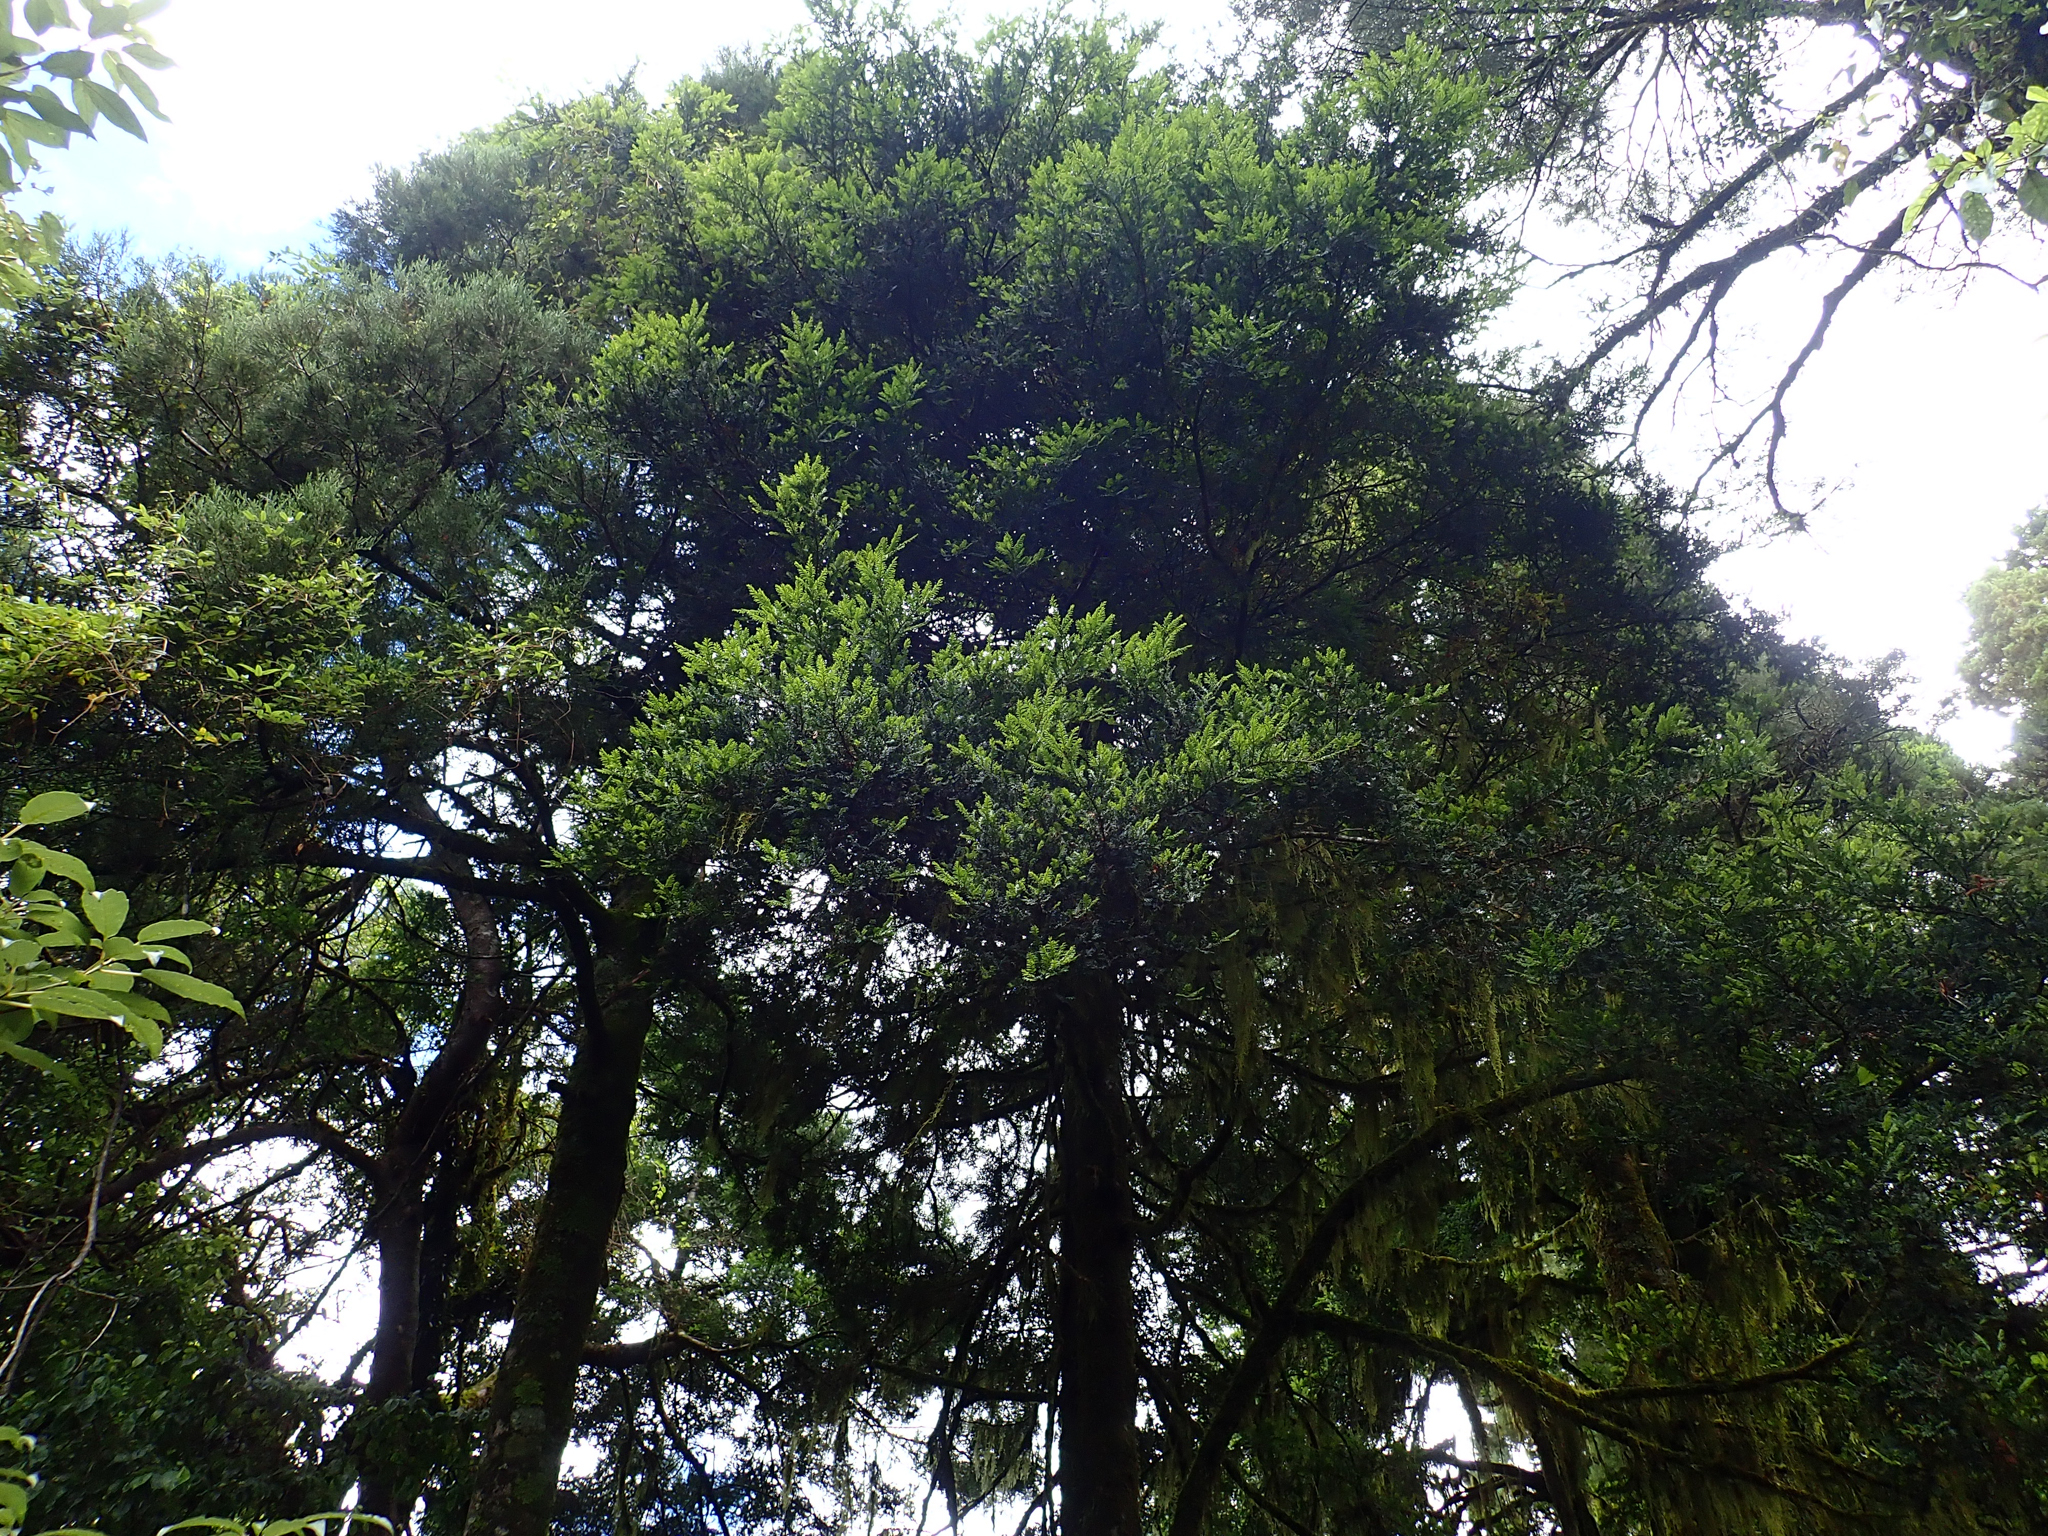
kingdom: Plantae
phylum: Tracheophyta
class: Pinopsida
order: Pinales
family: Podocarpaceae
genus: Prumnopitys
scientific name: Prumnopitys ferruginea
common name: Brown pine
